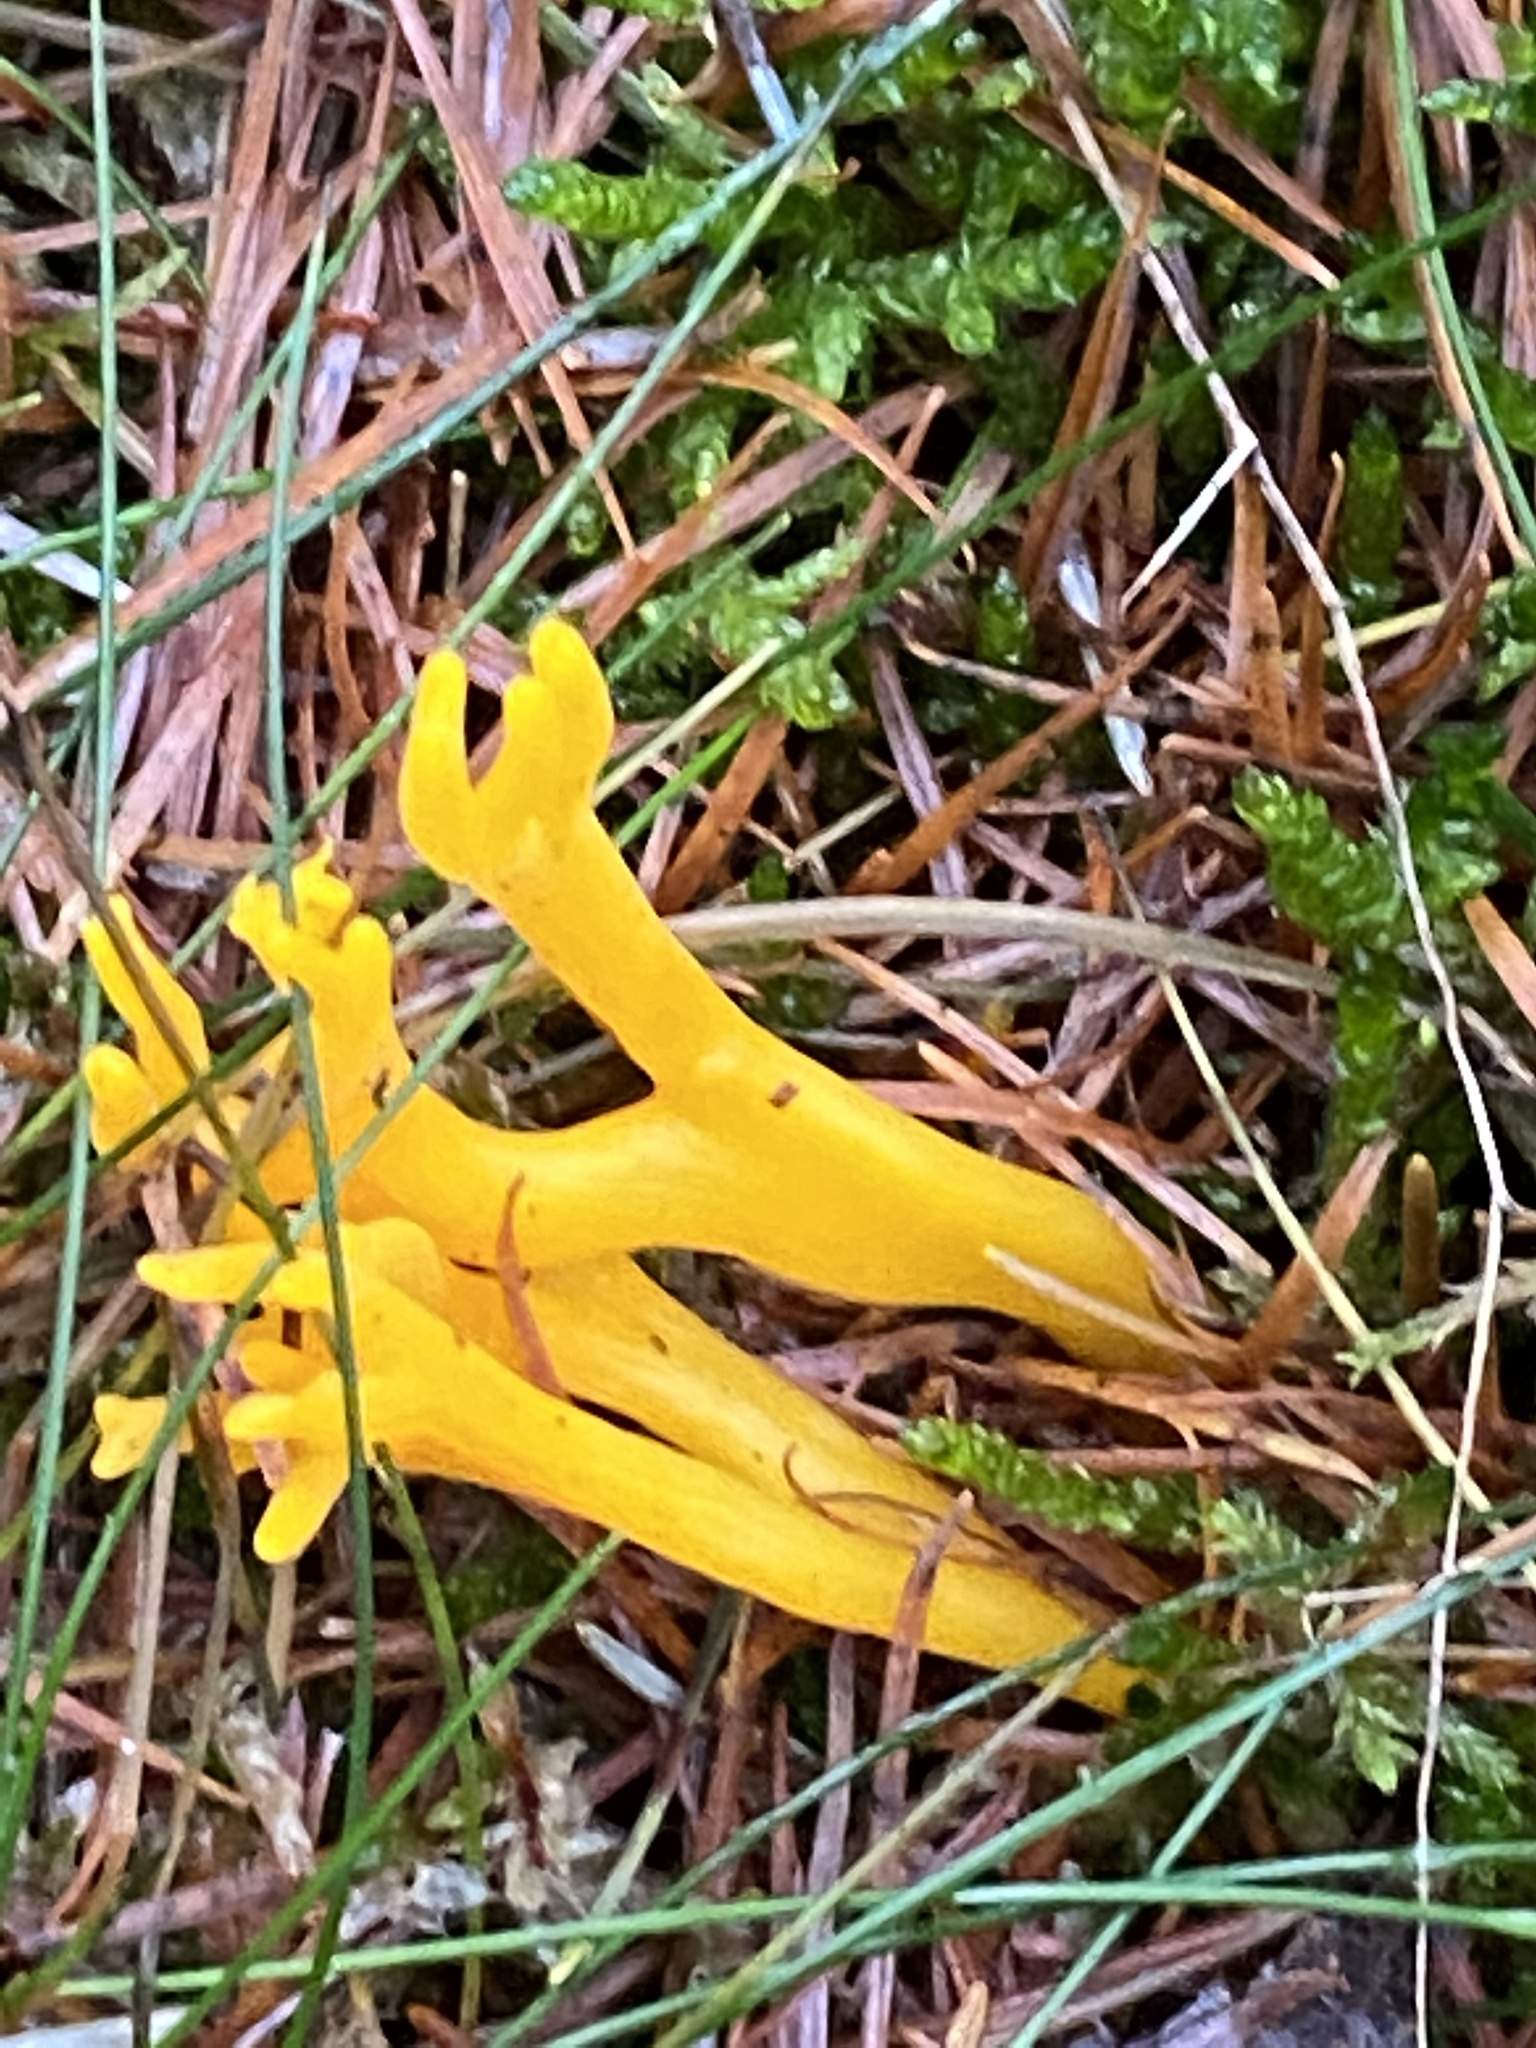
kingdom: Fungi
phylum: Basidiomycota
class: Dacrymycetes
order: Dacrymycetales
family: Dacrymycetaceae
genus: Calocera
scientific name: Calocera viscosa
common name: Yellow stagshorn
